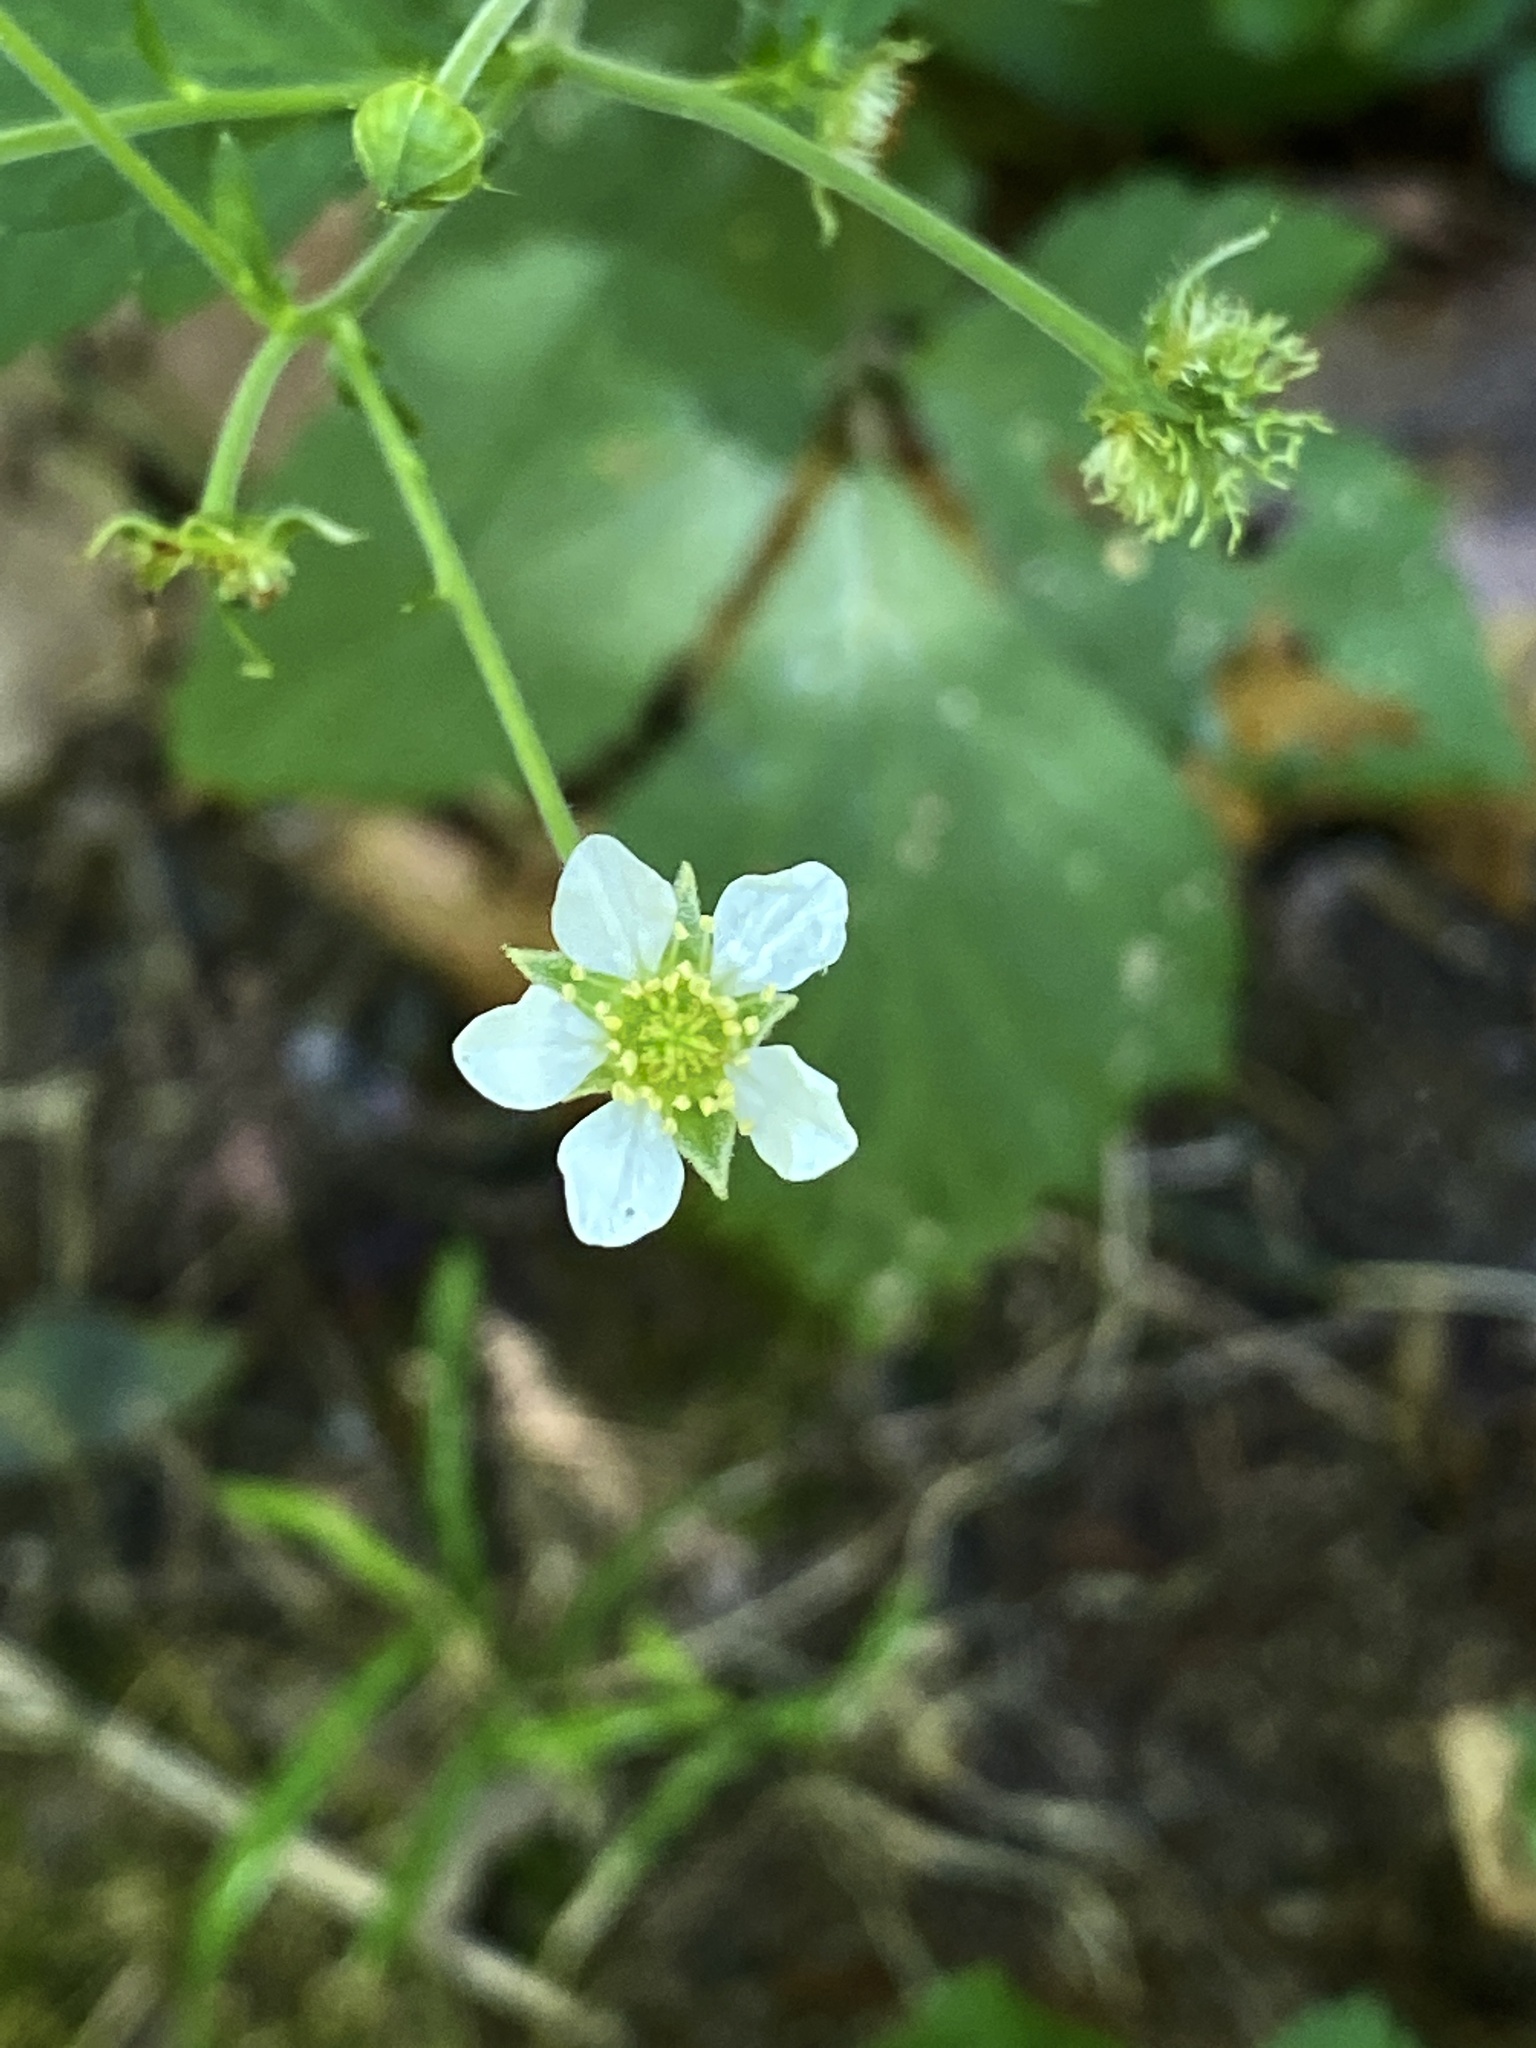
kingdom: Plantae
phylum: Tracheophyta
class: Magnoliopsida
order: Rosales
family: Rosaceae
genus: Geum
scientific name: Geum canadense
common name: White avens
